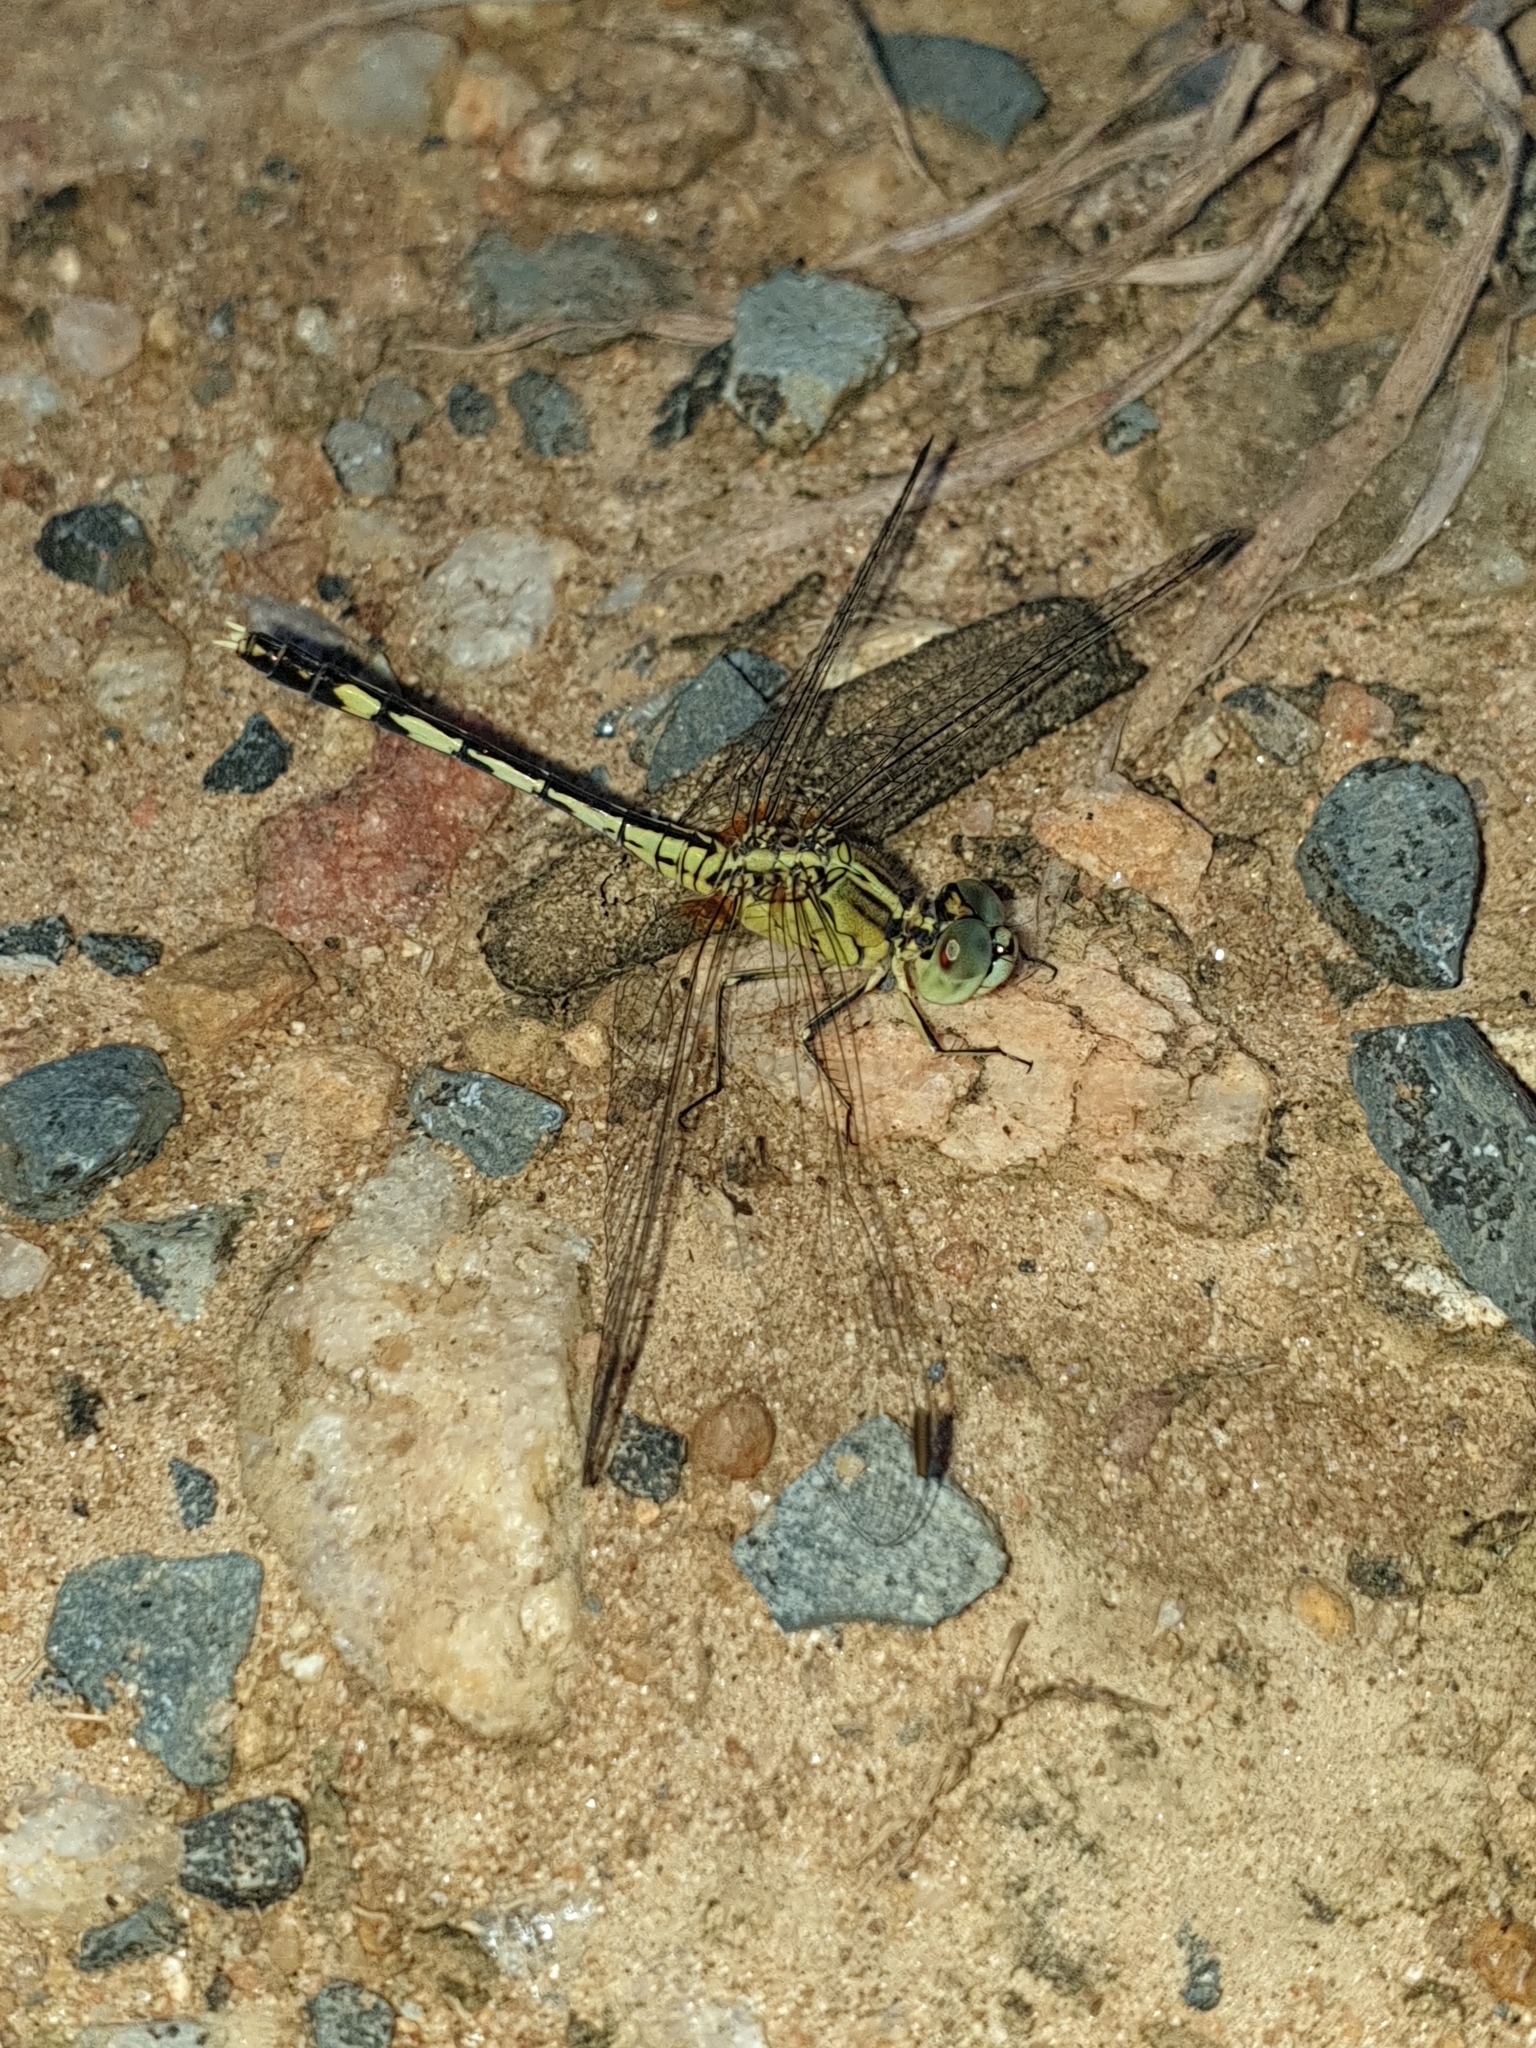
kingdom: Animalia
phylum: Arthropoda
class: Insecta
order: Odonata
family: Libellulidae
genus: Diplacodes
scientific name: Diplacodes trivialis
